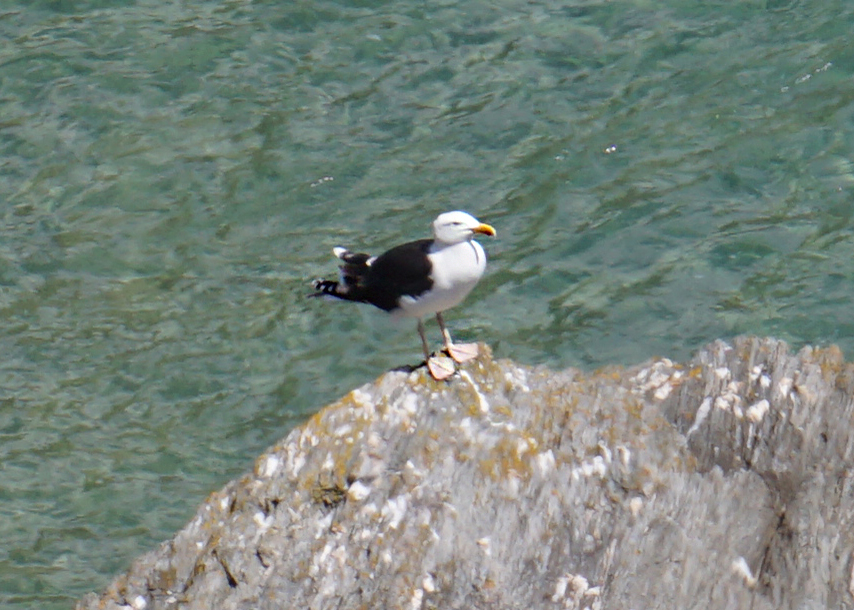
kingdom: Animalia
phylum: Chordata
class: Aves
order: Charadriiformes
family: Laridae
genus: Larus
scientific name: Larus marinus
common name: Great black-backed gull
